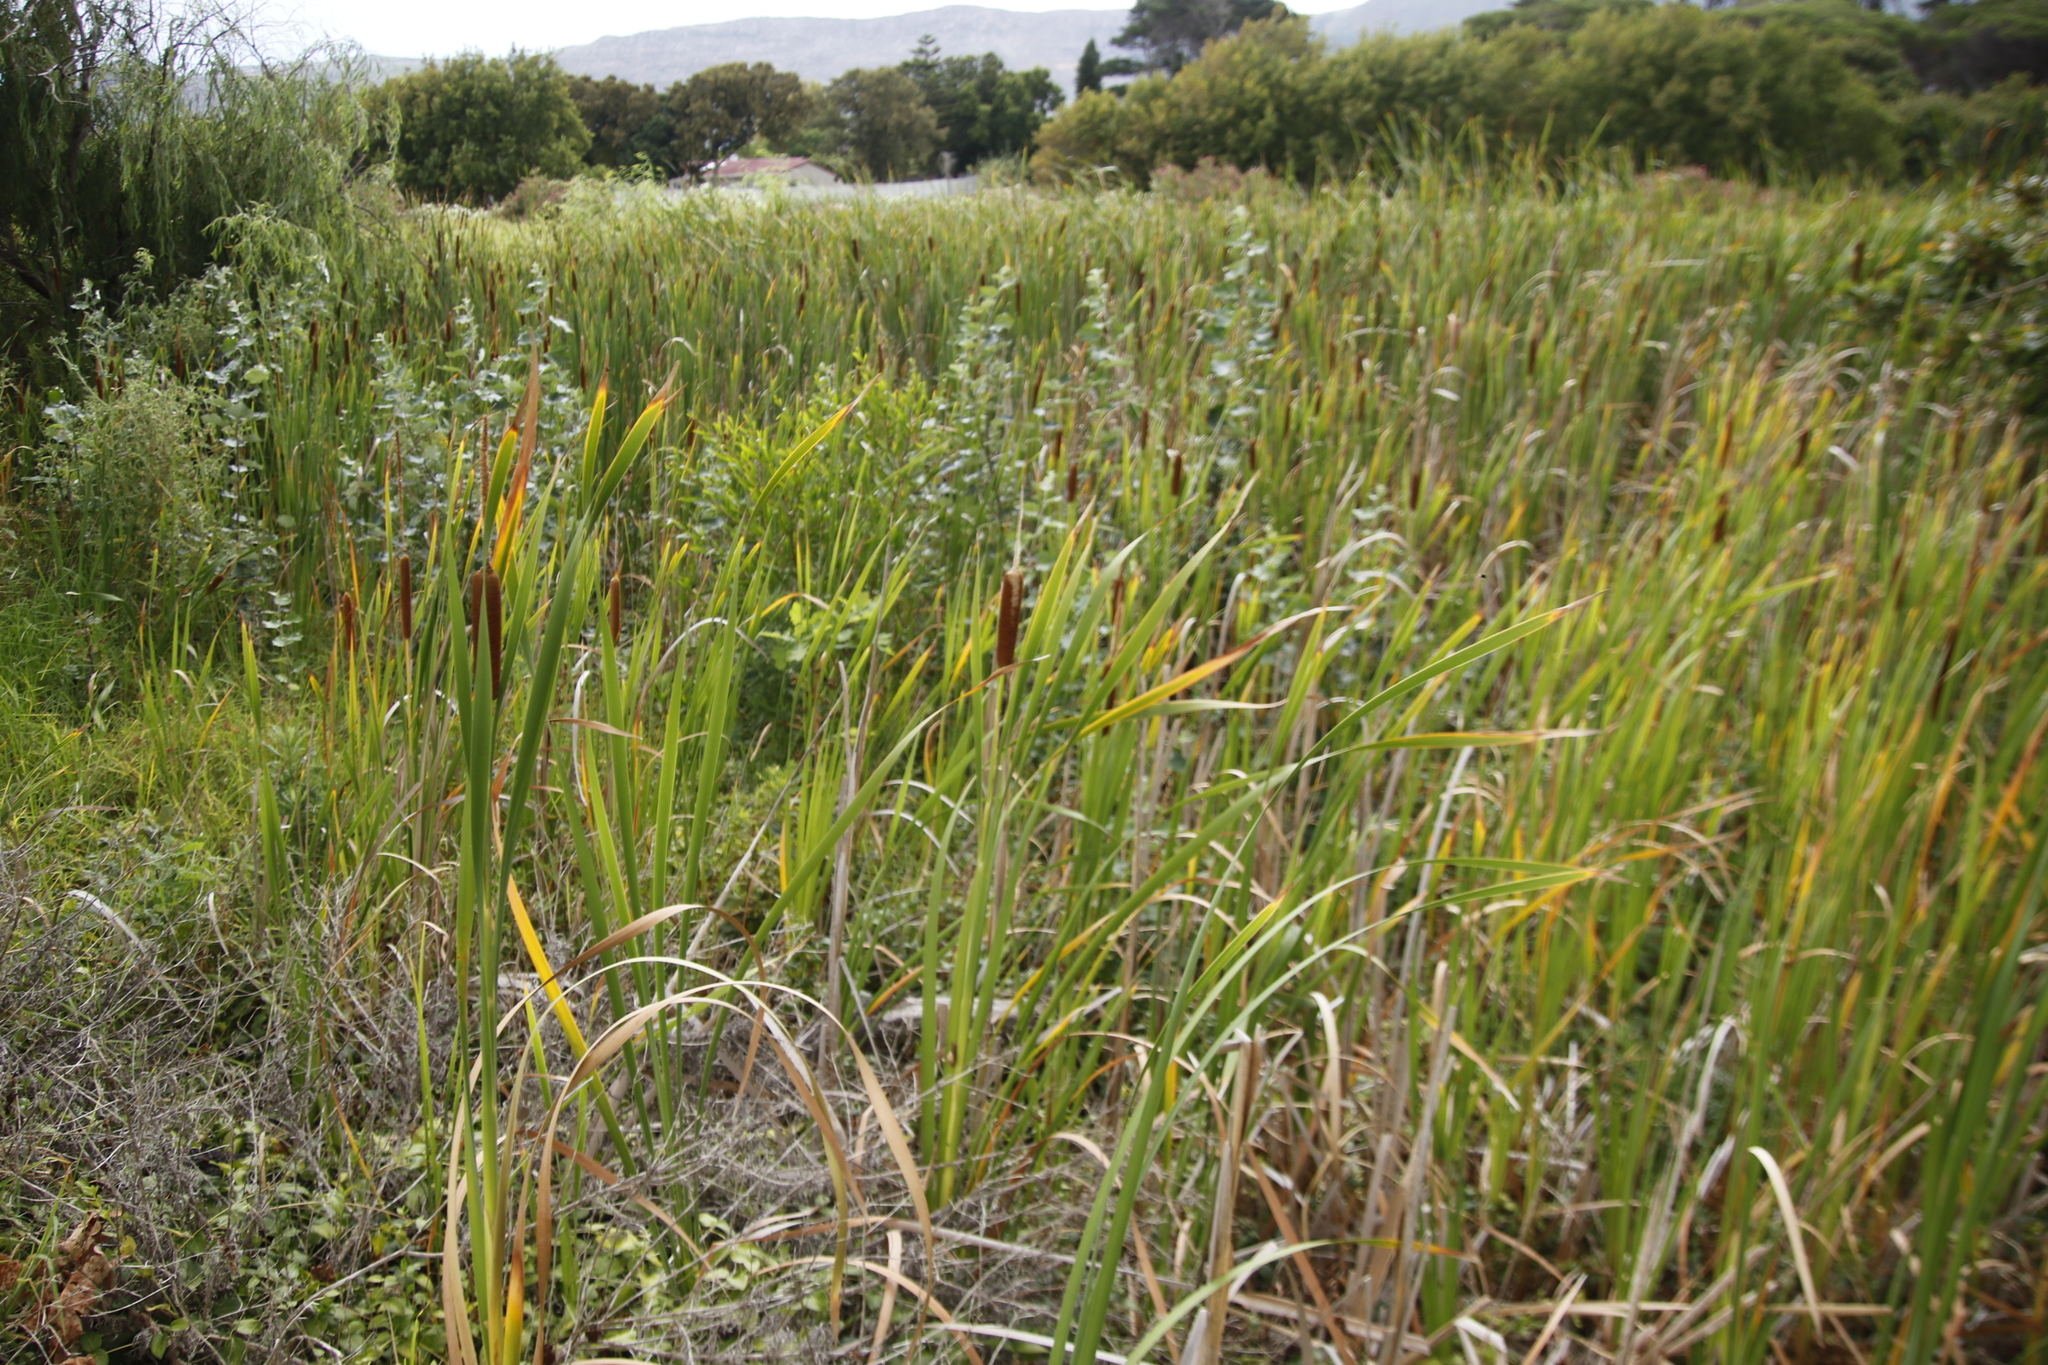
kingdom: Plantae
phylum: Tracheophyta
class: Liliopsida
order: Poales
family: Typhaceae
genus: Typha
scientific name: Typha capensis
